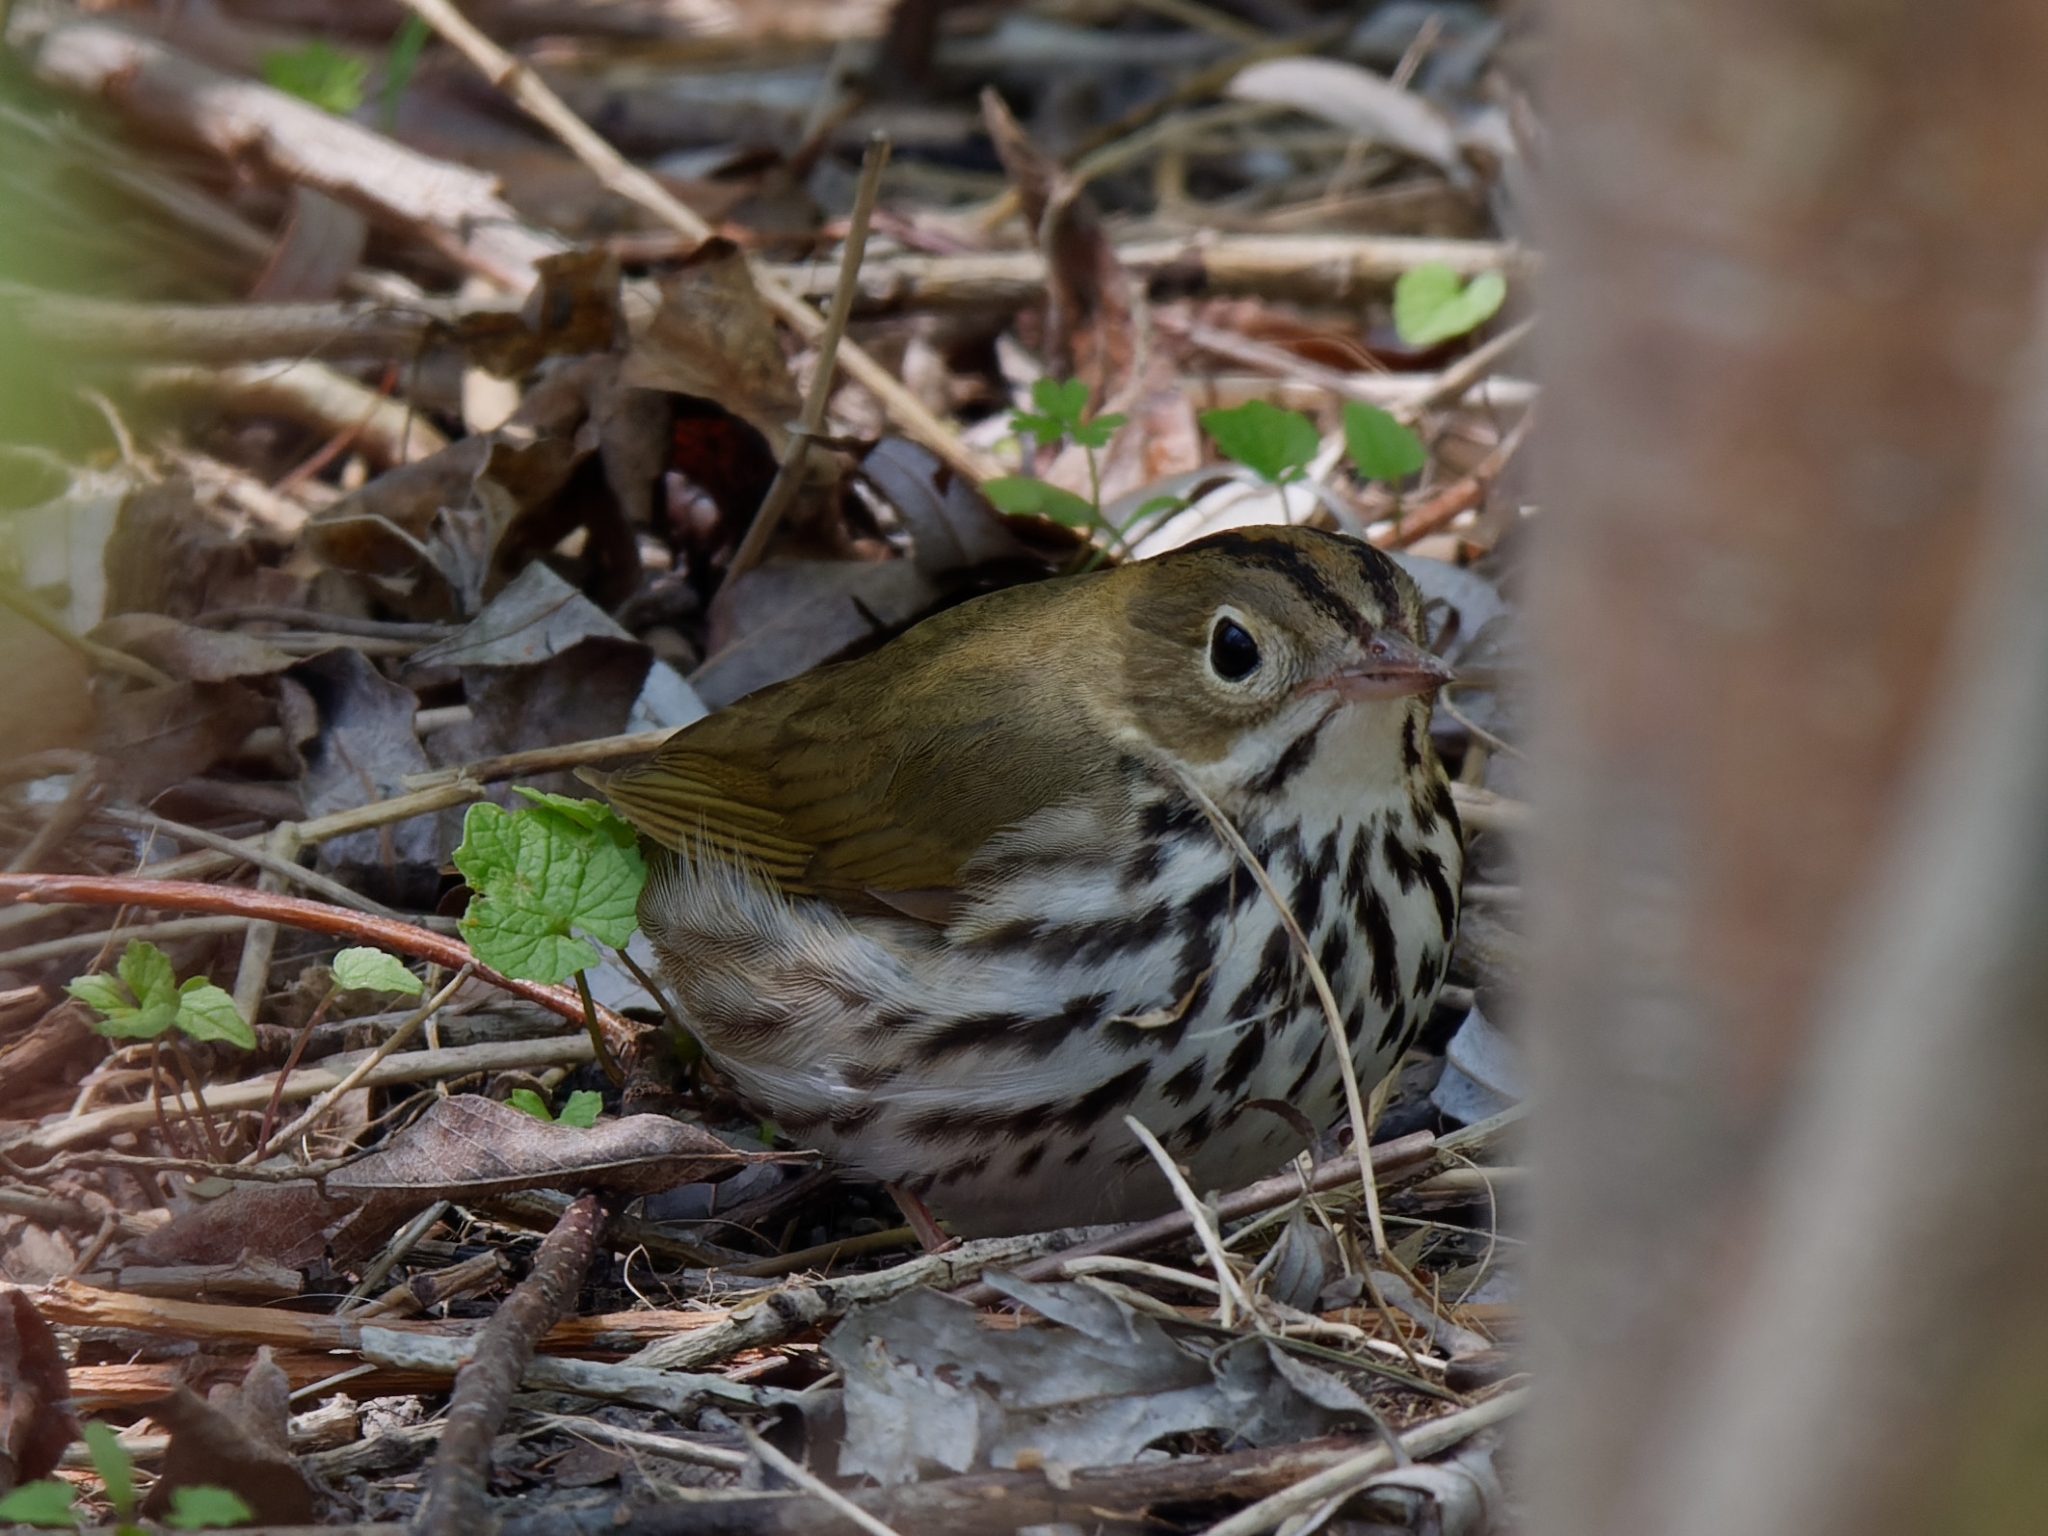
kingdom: Animalia
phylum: Chordata
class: Aves
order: Passeriformes
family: Parulidae
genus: Seiurus
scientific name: Seiurus aurocapilla
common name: Ovenbird
